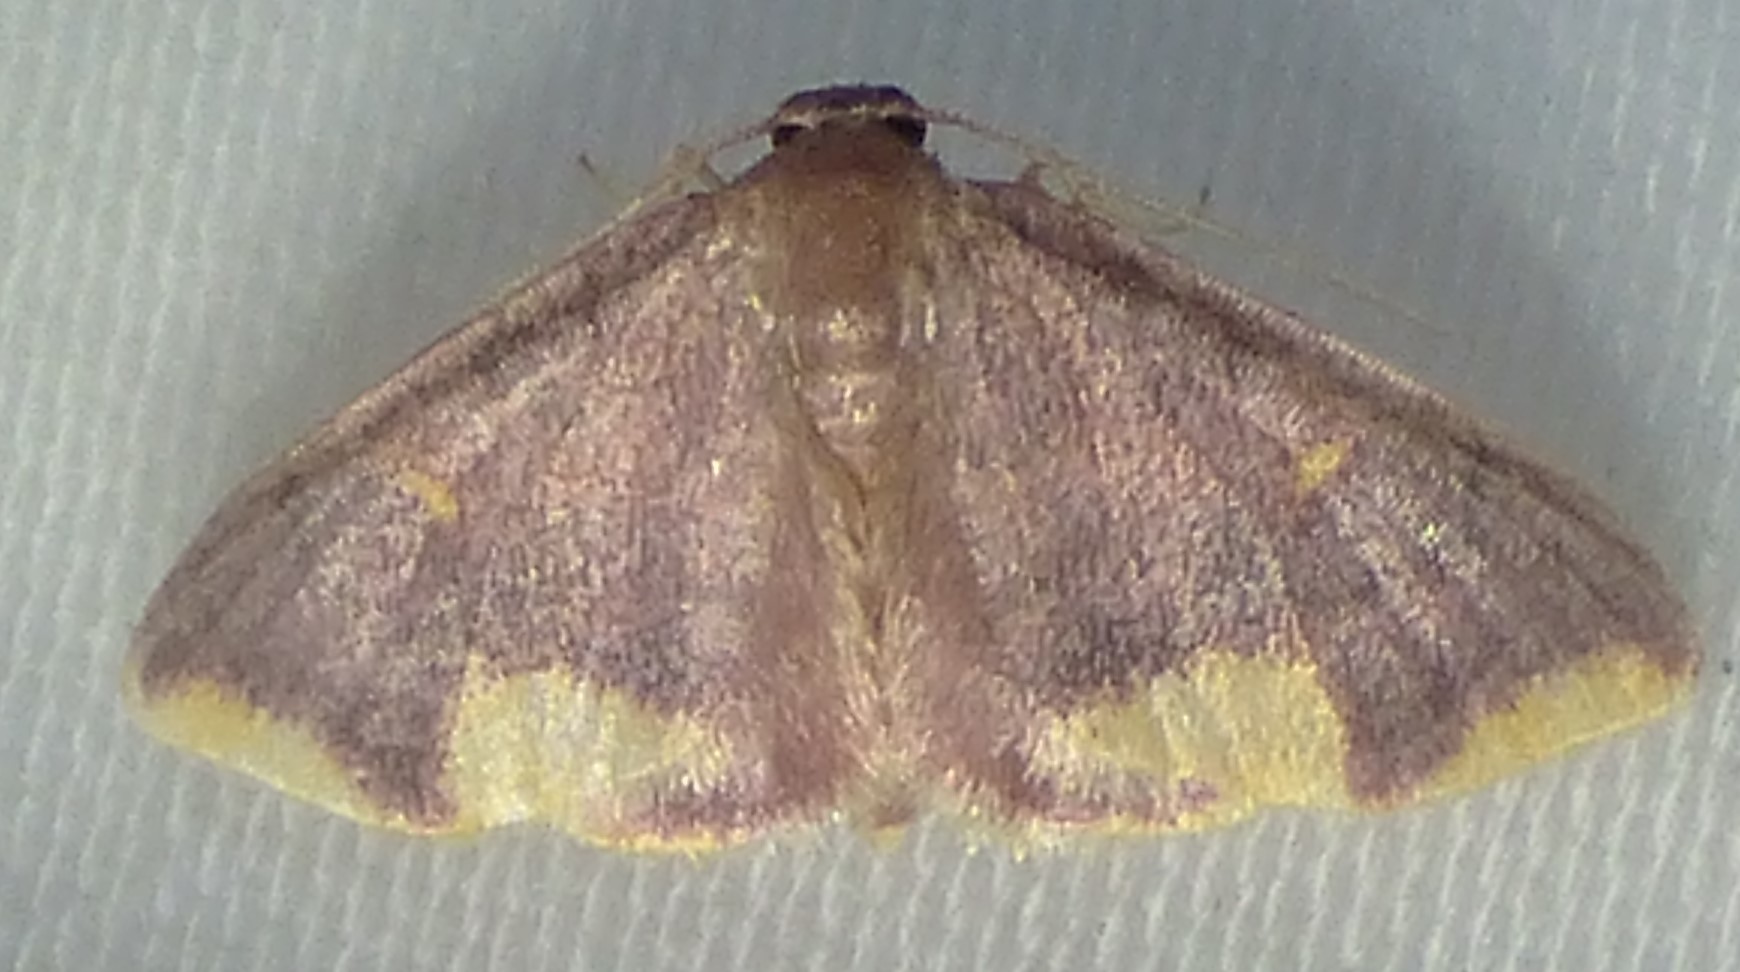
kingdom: Animalia
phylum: Arthropoda
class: Insecta
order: Lepidoptera
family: Geometridae
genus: Lophosis
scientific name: Lophosis labeculata
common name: Stained lophosis moth
